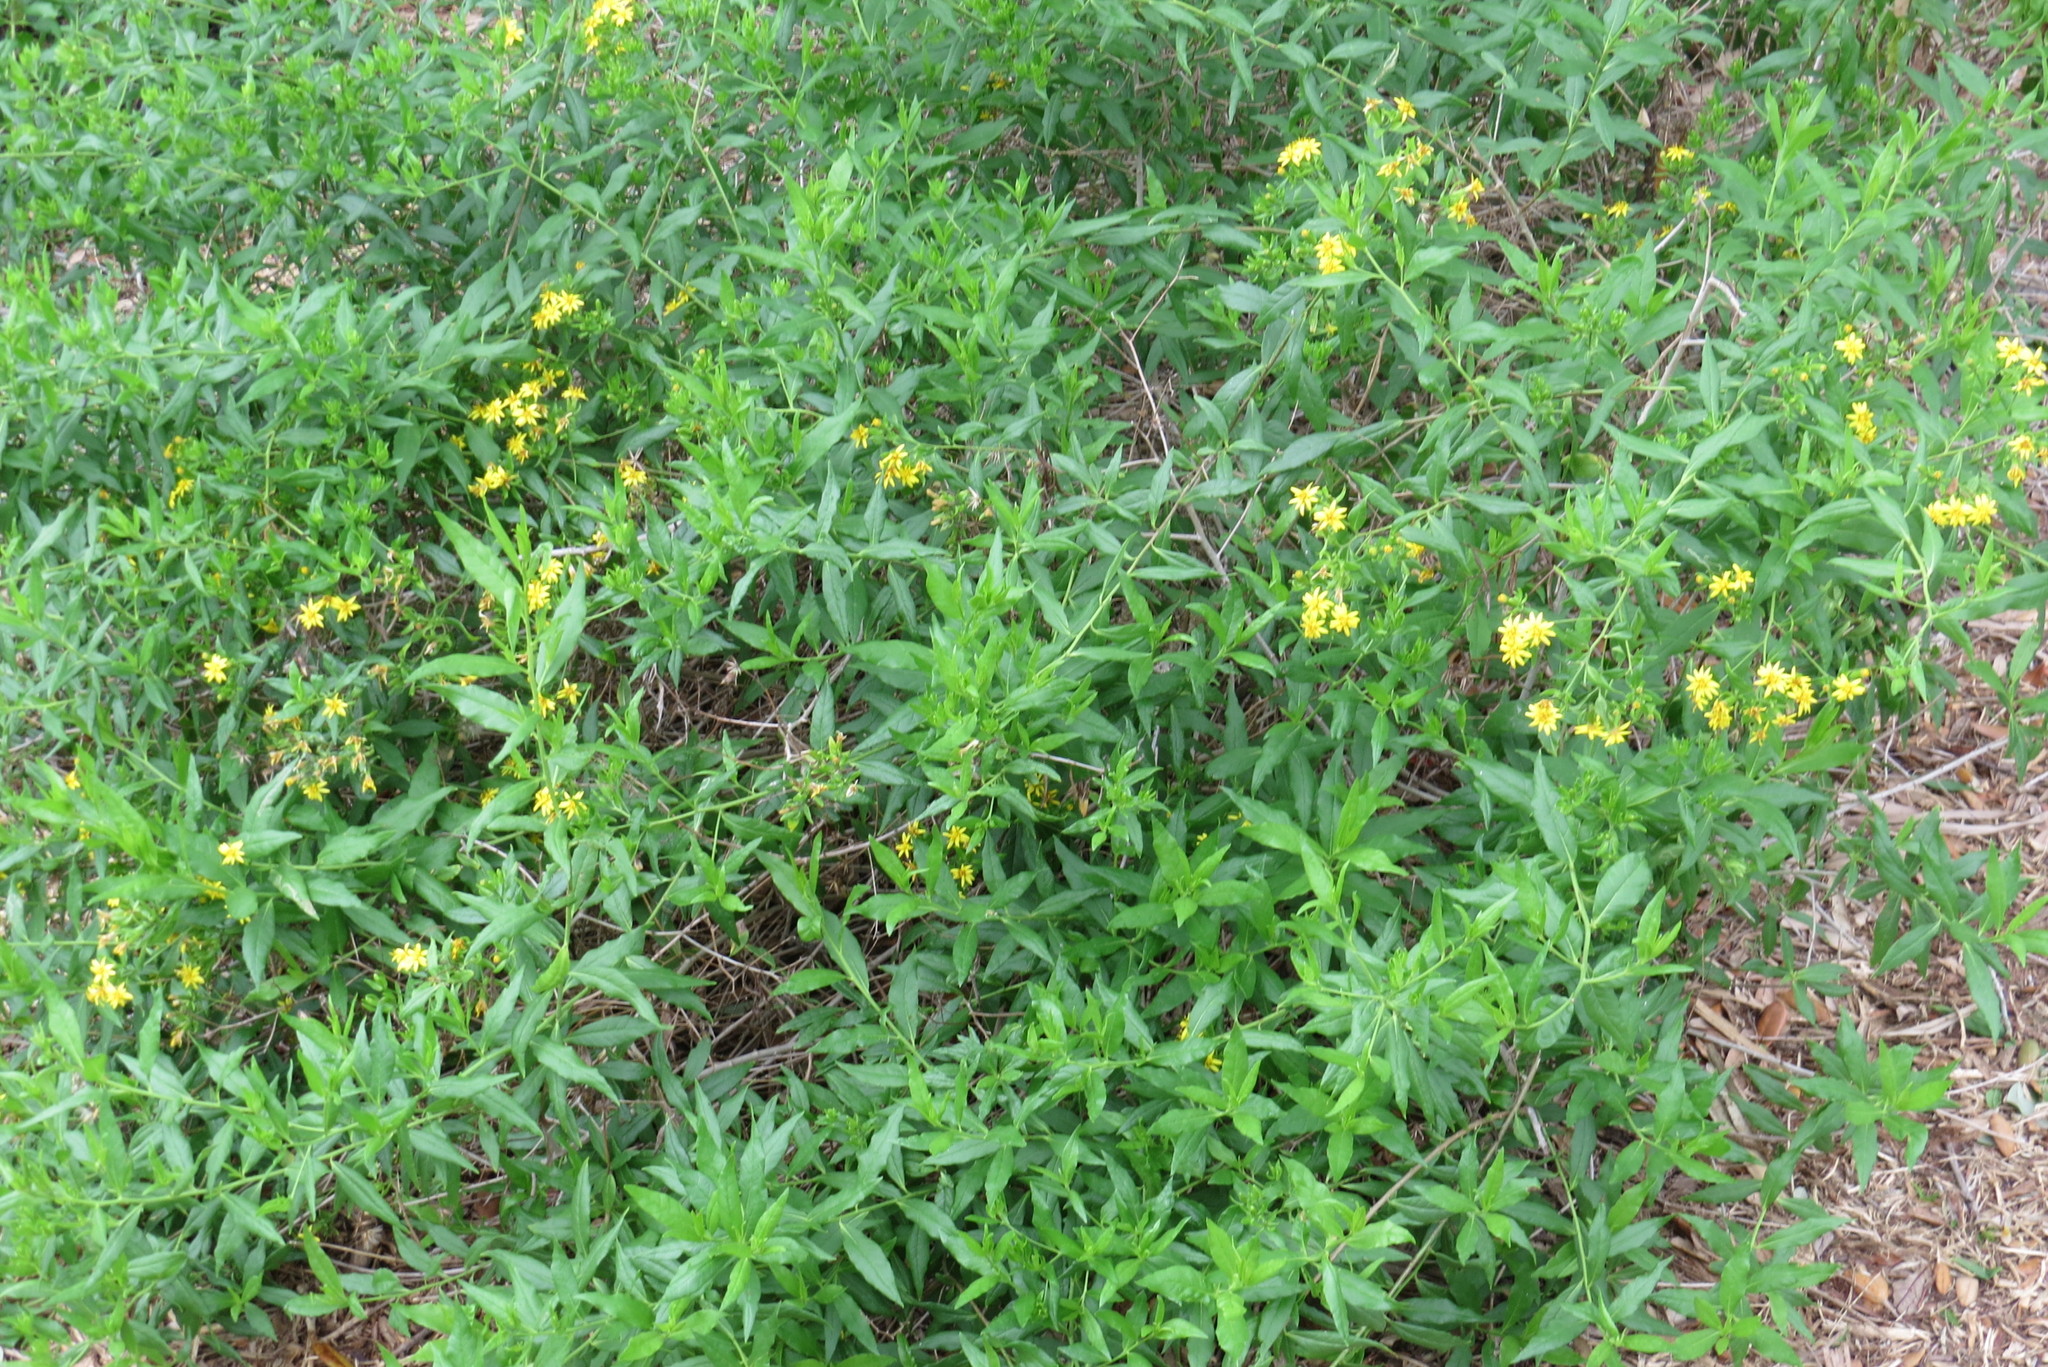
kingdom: Plantae
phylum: Tracheophyta
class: Magnoliopsida
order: Asterales
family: Asteraceae
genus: Trixis
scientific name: Trixis inula
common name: Tropical threefold
